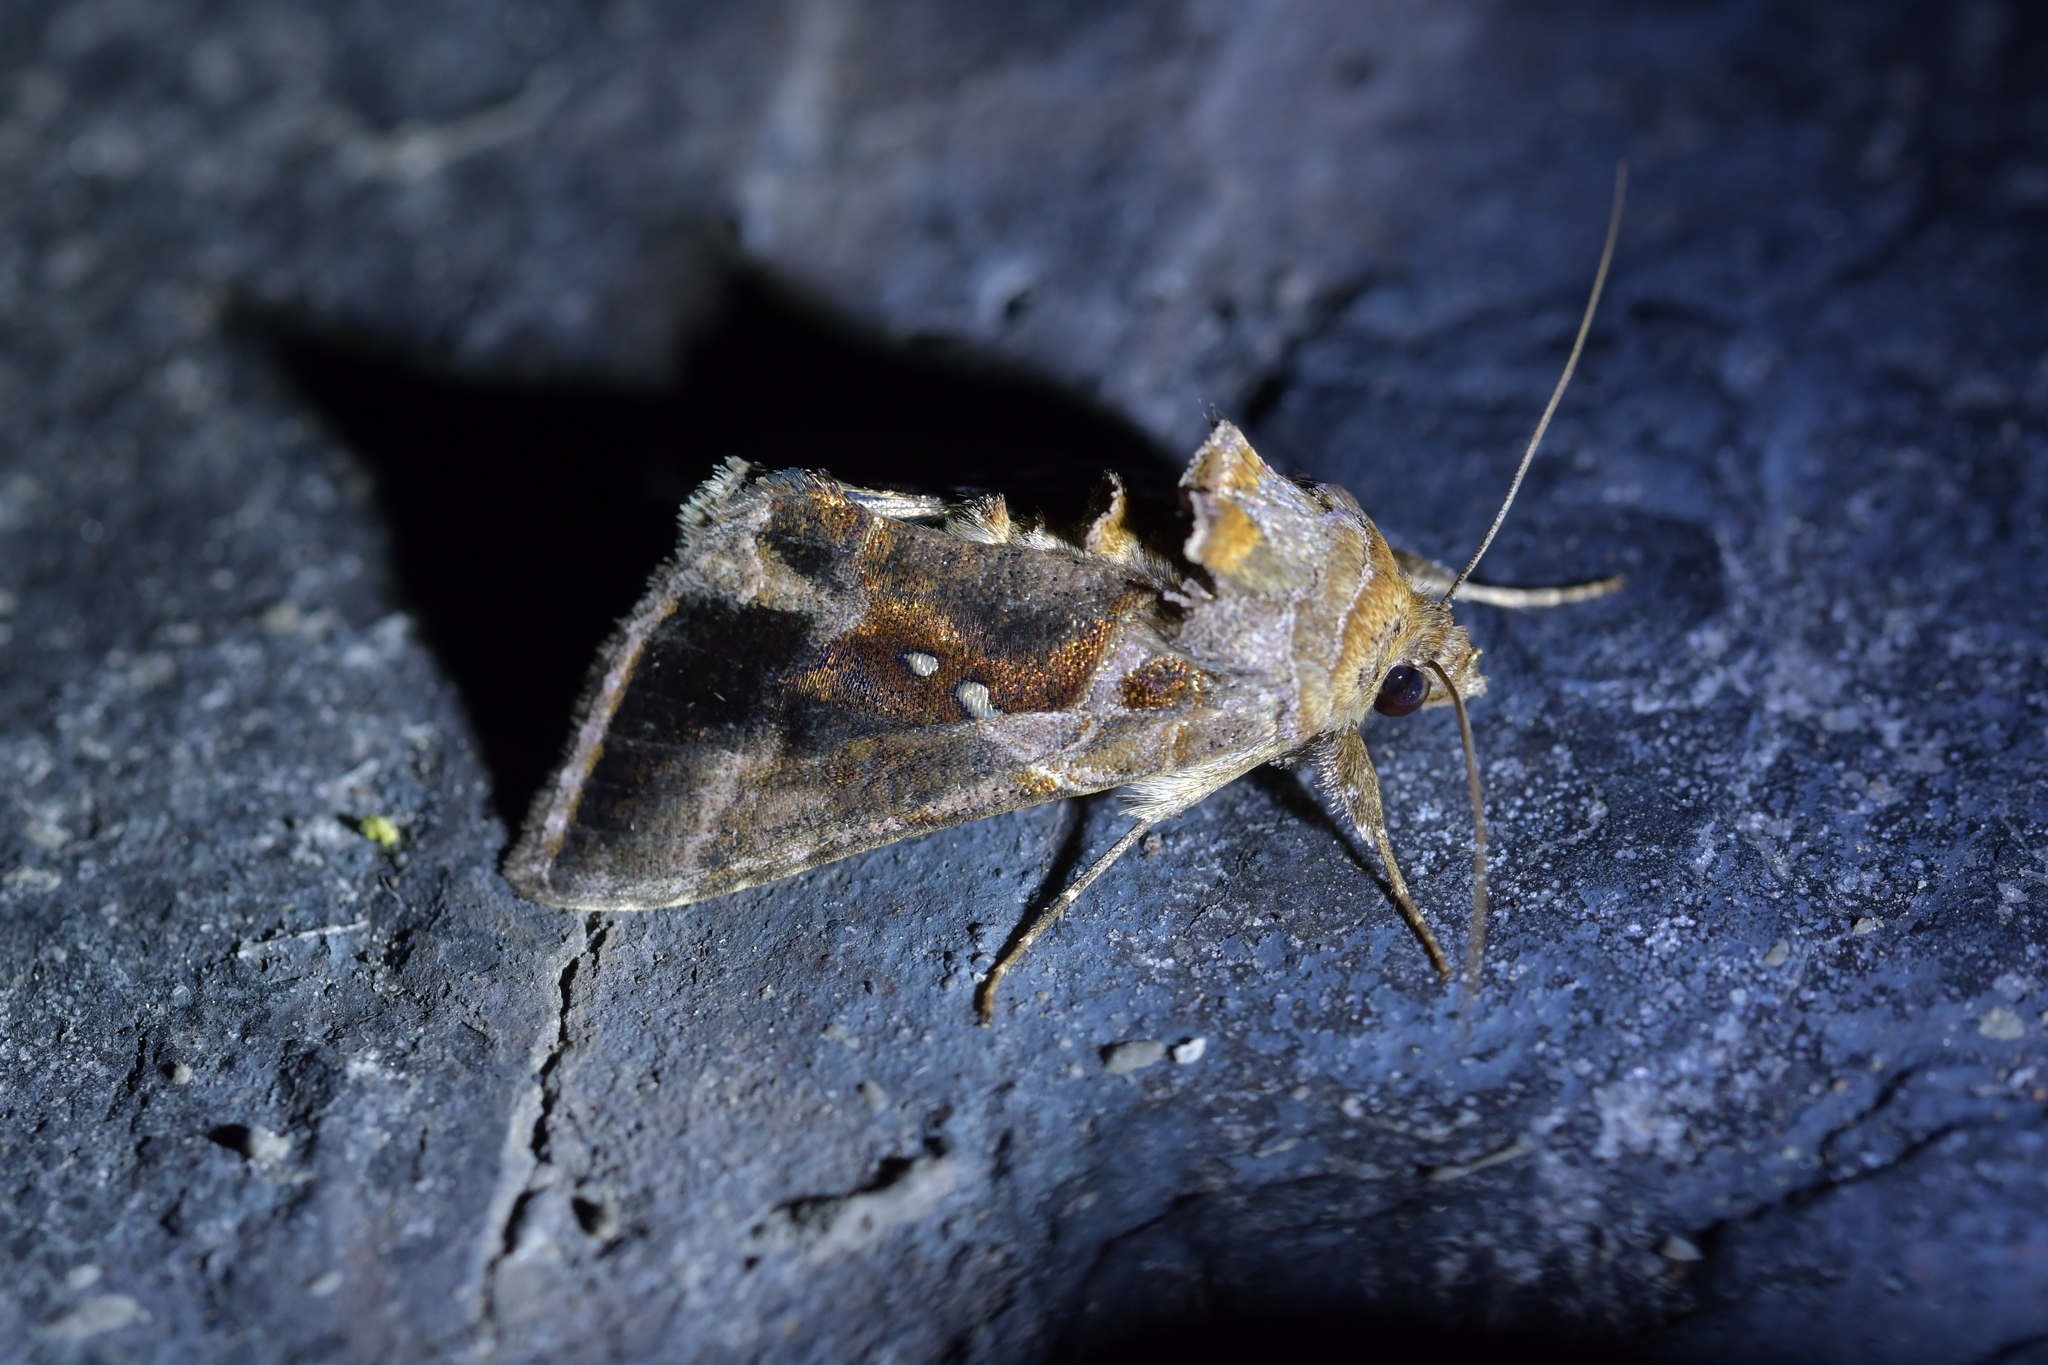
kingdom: Animalia
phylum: Arthropoda
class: Insecta
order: Lepidoptera
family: Noctuidae
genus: Chrysodeixis
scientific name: Chrysodeixis eriosoma
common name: Green garden looper
